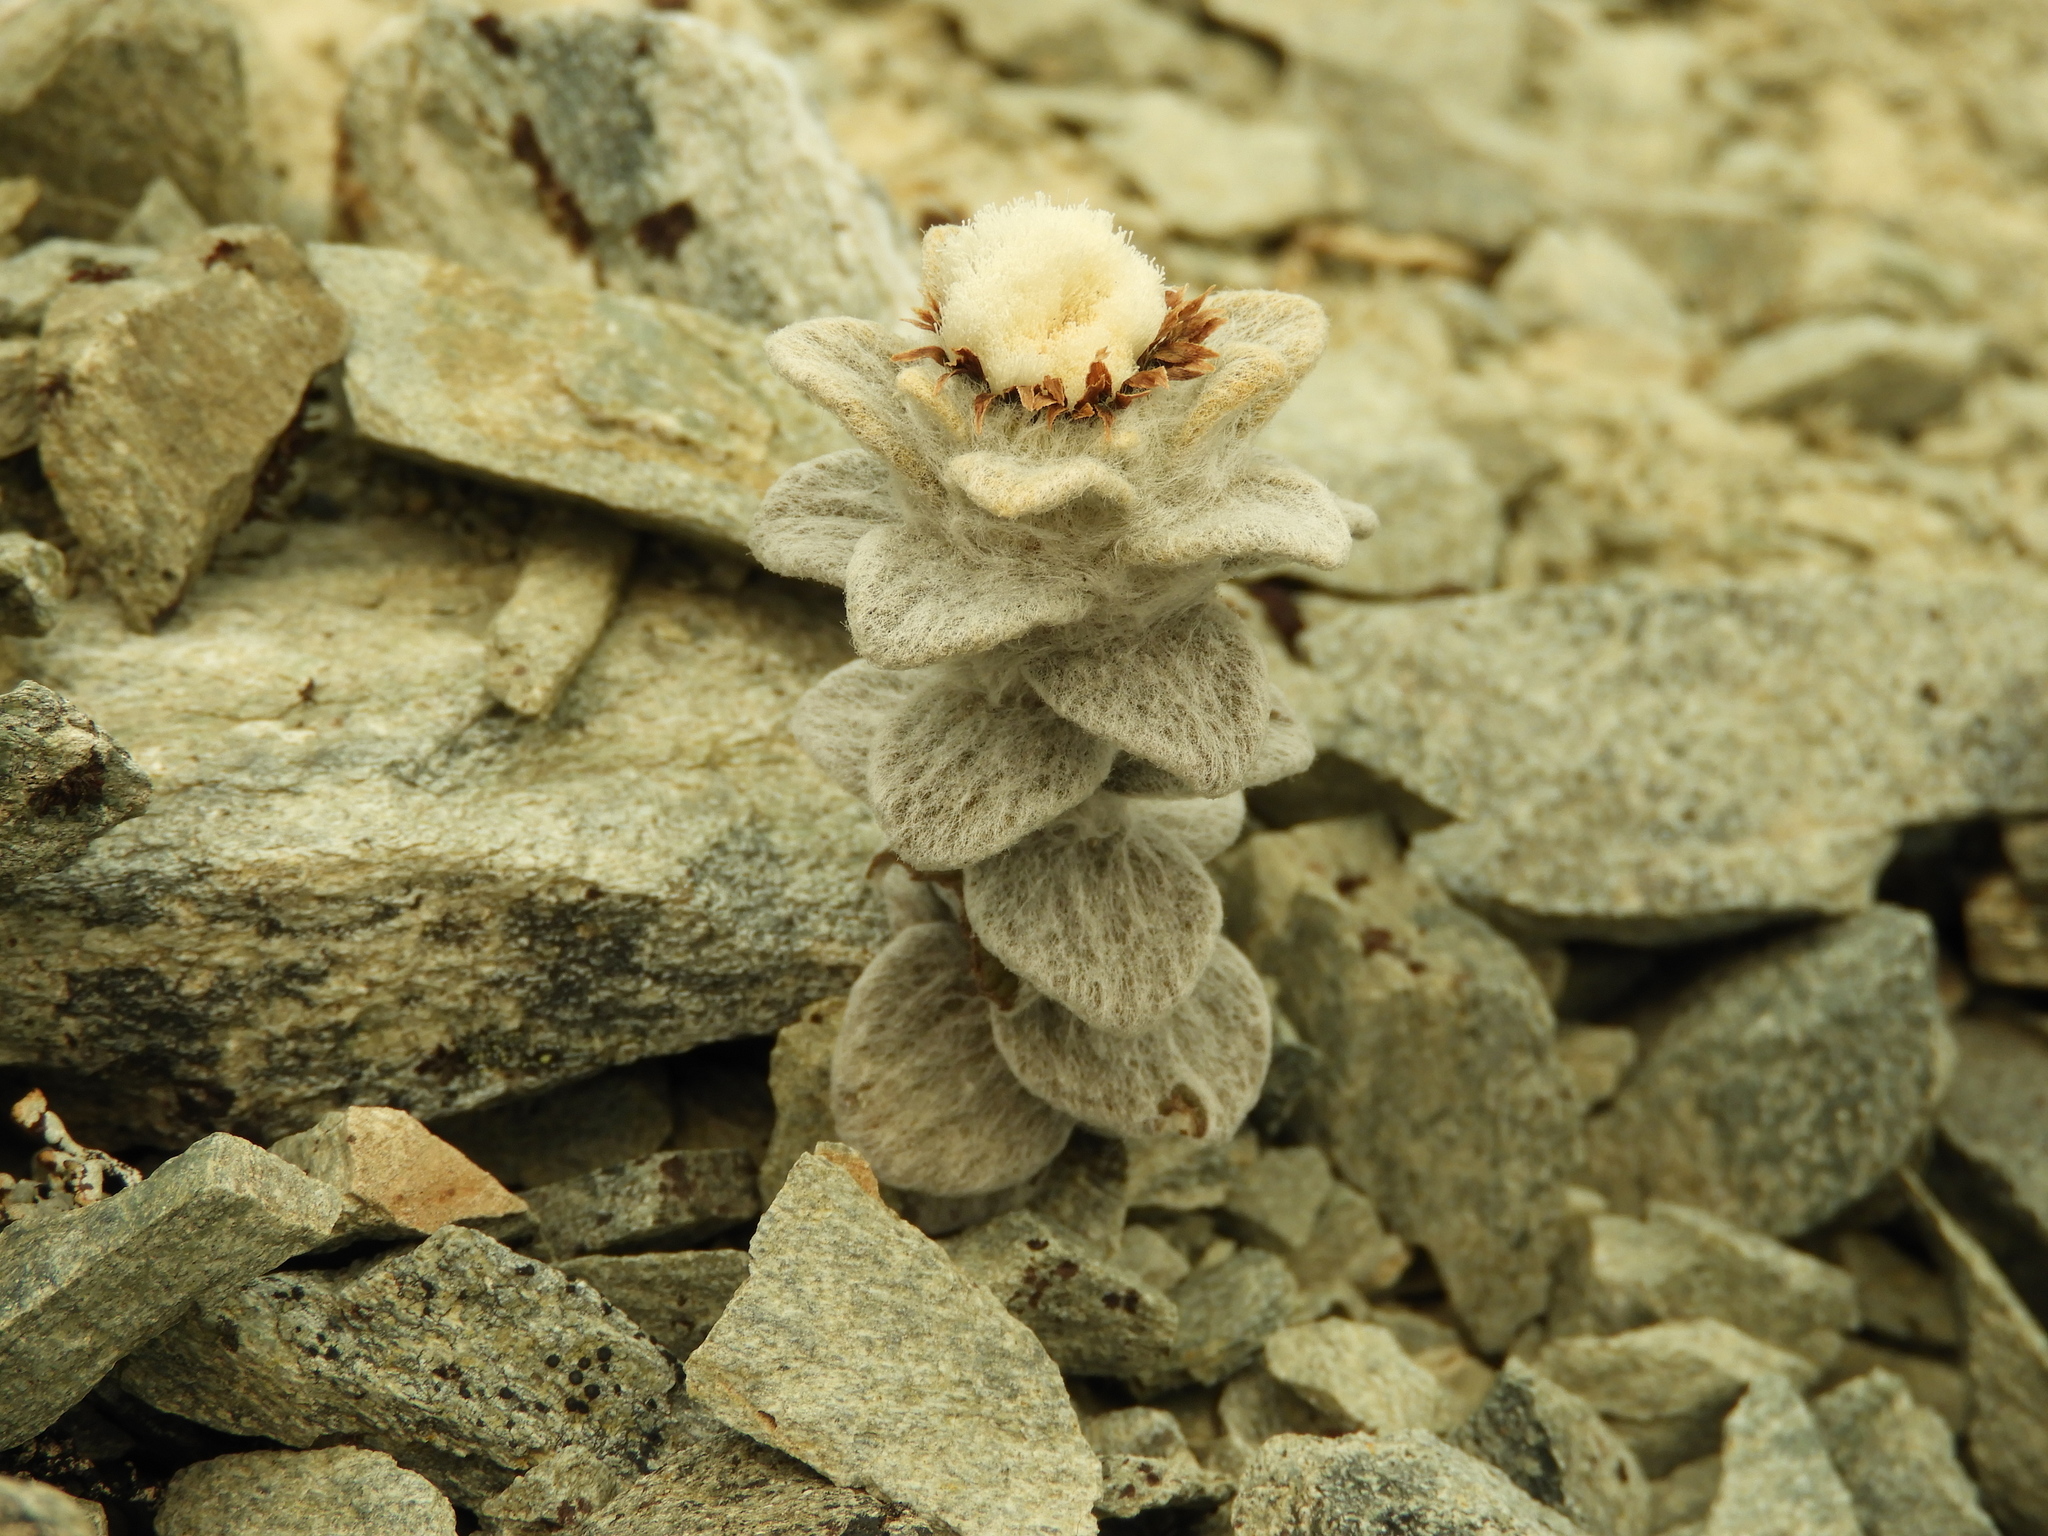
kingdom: Plantae
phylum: Tracheophyta
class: Magnoliopsida
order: Asterales
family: Asteraceae
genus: Haastia
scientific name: Haastia sinclairii
